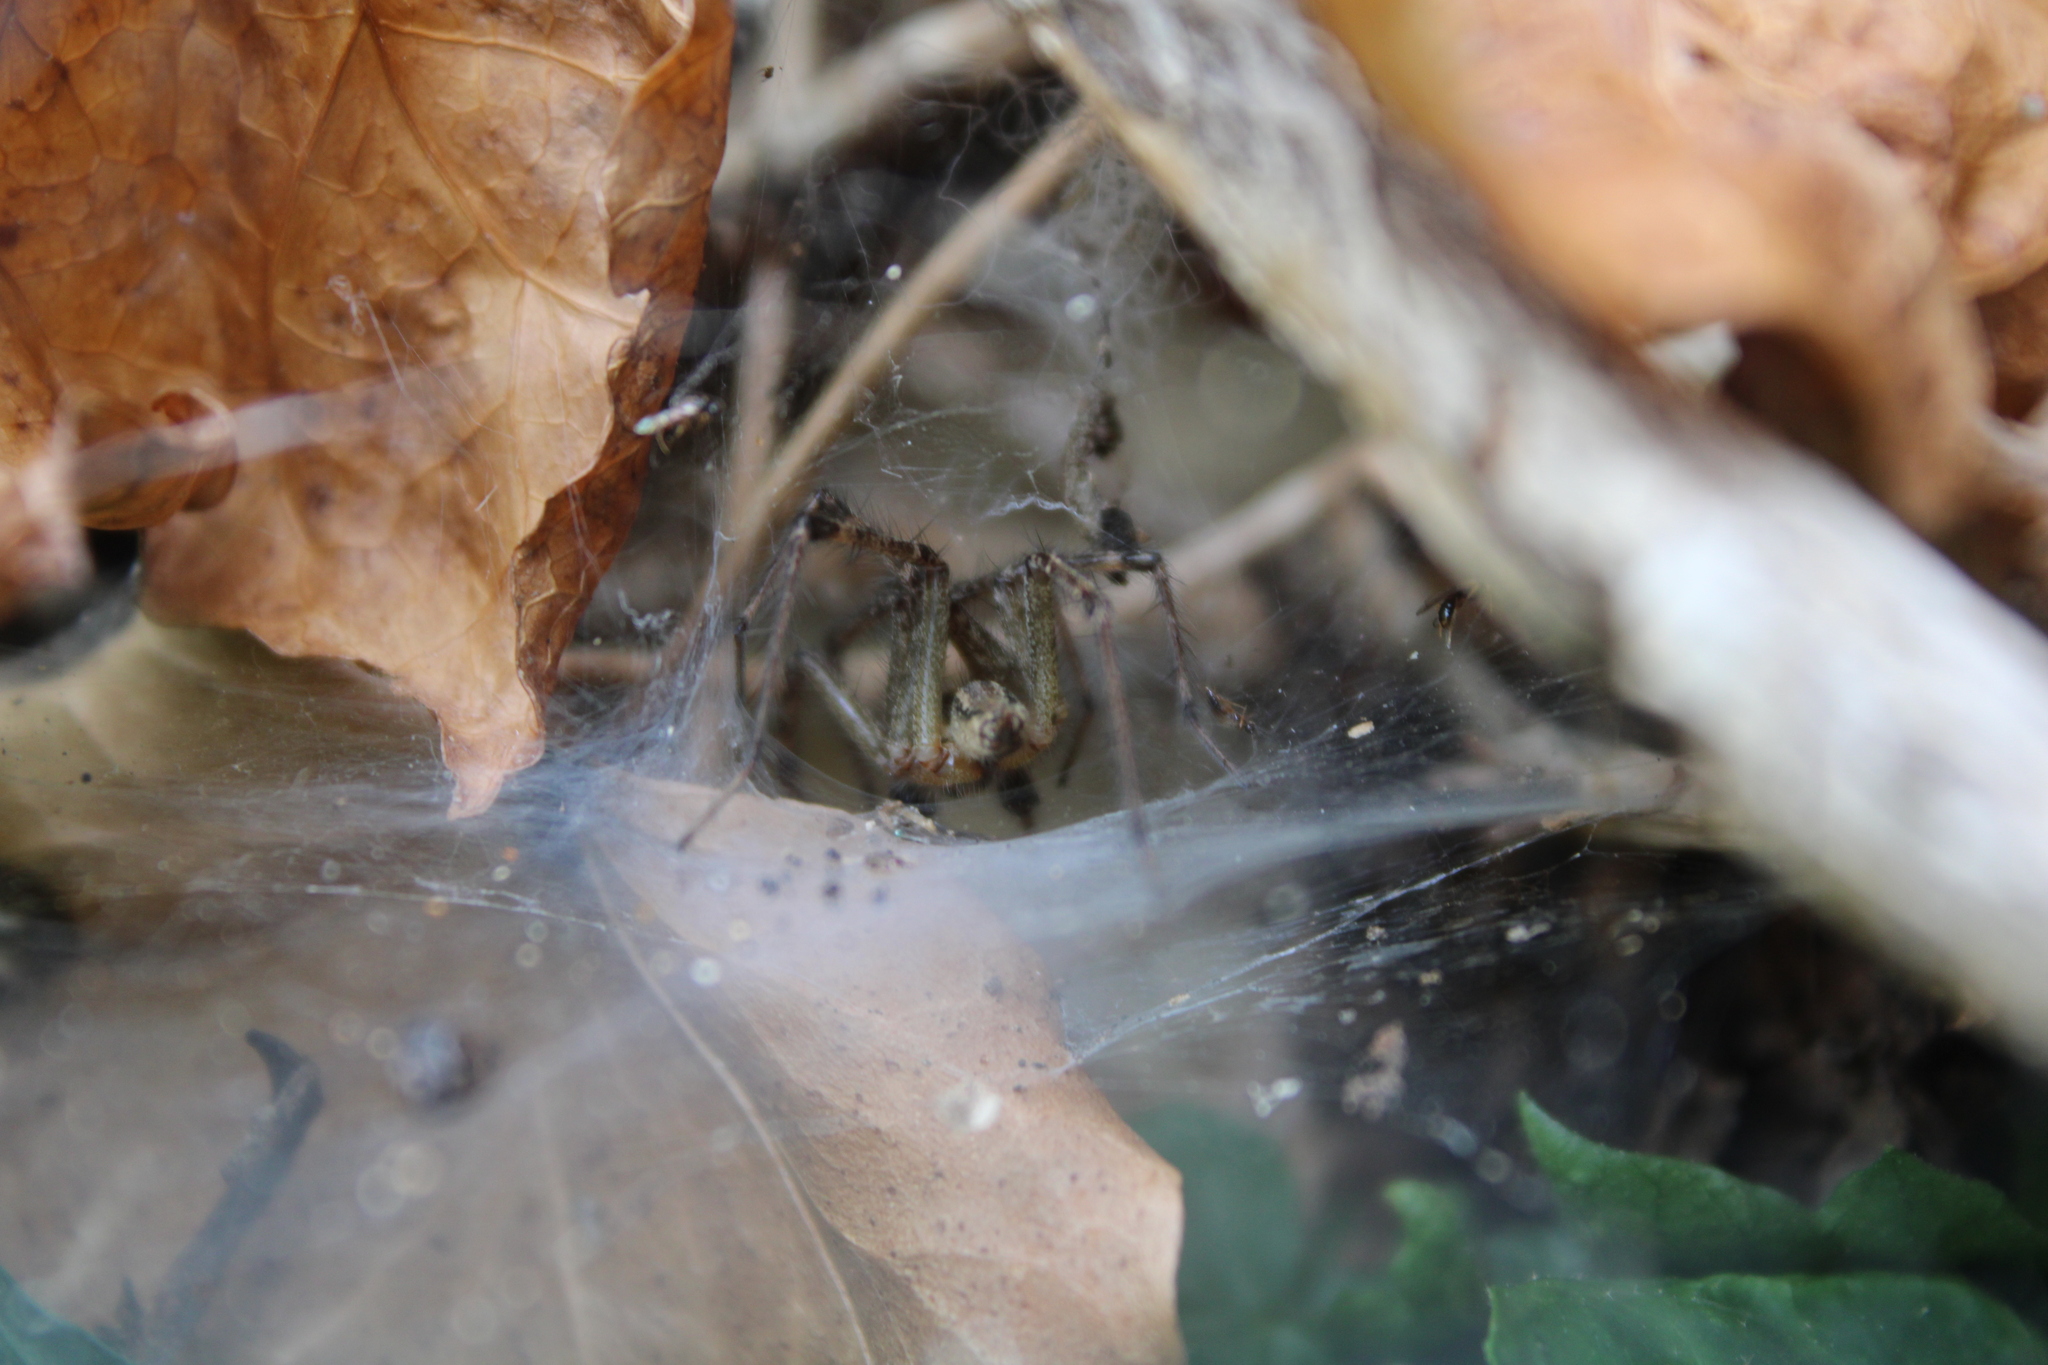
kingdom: Animalia
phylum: Arthropoda
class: Arachnida
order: Araneae
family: Agelenidae
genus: Agelenopsis
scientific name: Agelenopsis
